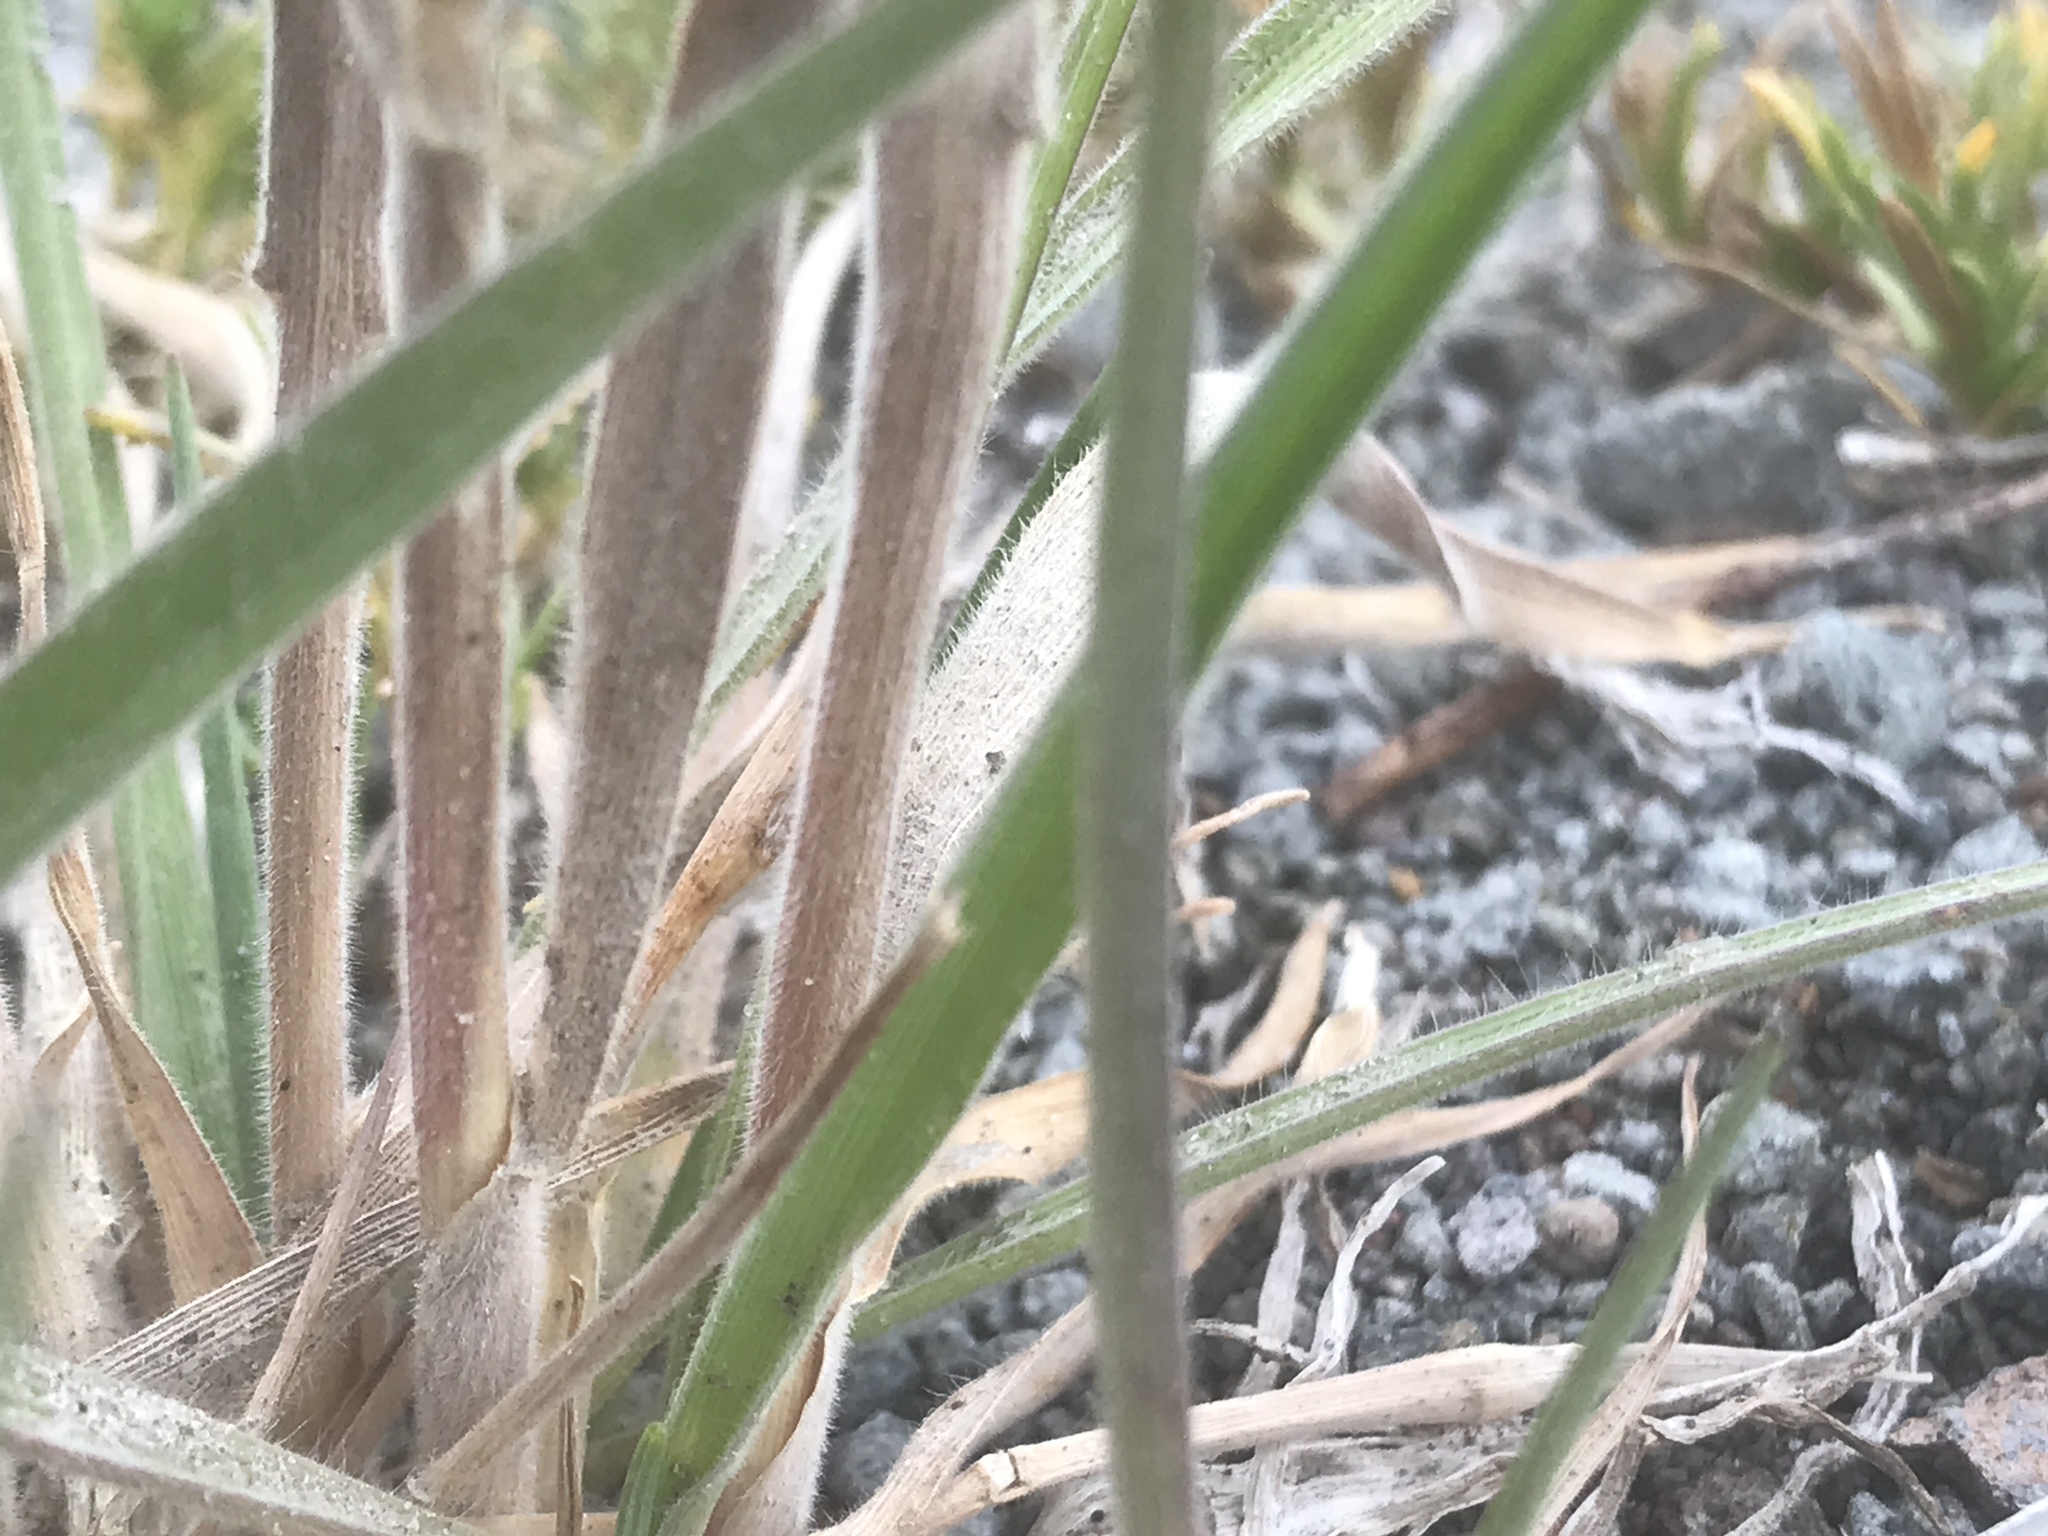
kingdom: Plantae
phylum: Tracheophyta
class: Liliopsida
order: Poales
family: Poaceae
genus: Koeleria
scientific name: Koeleria spicata
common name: Mountain trisetum
